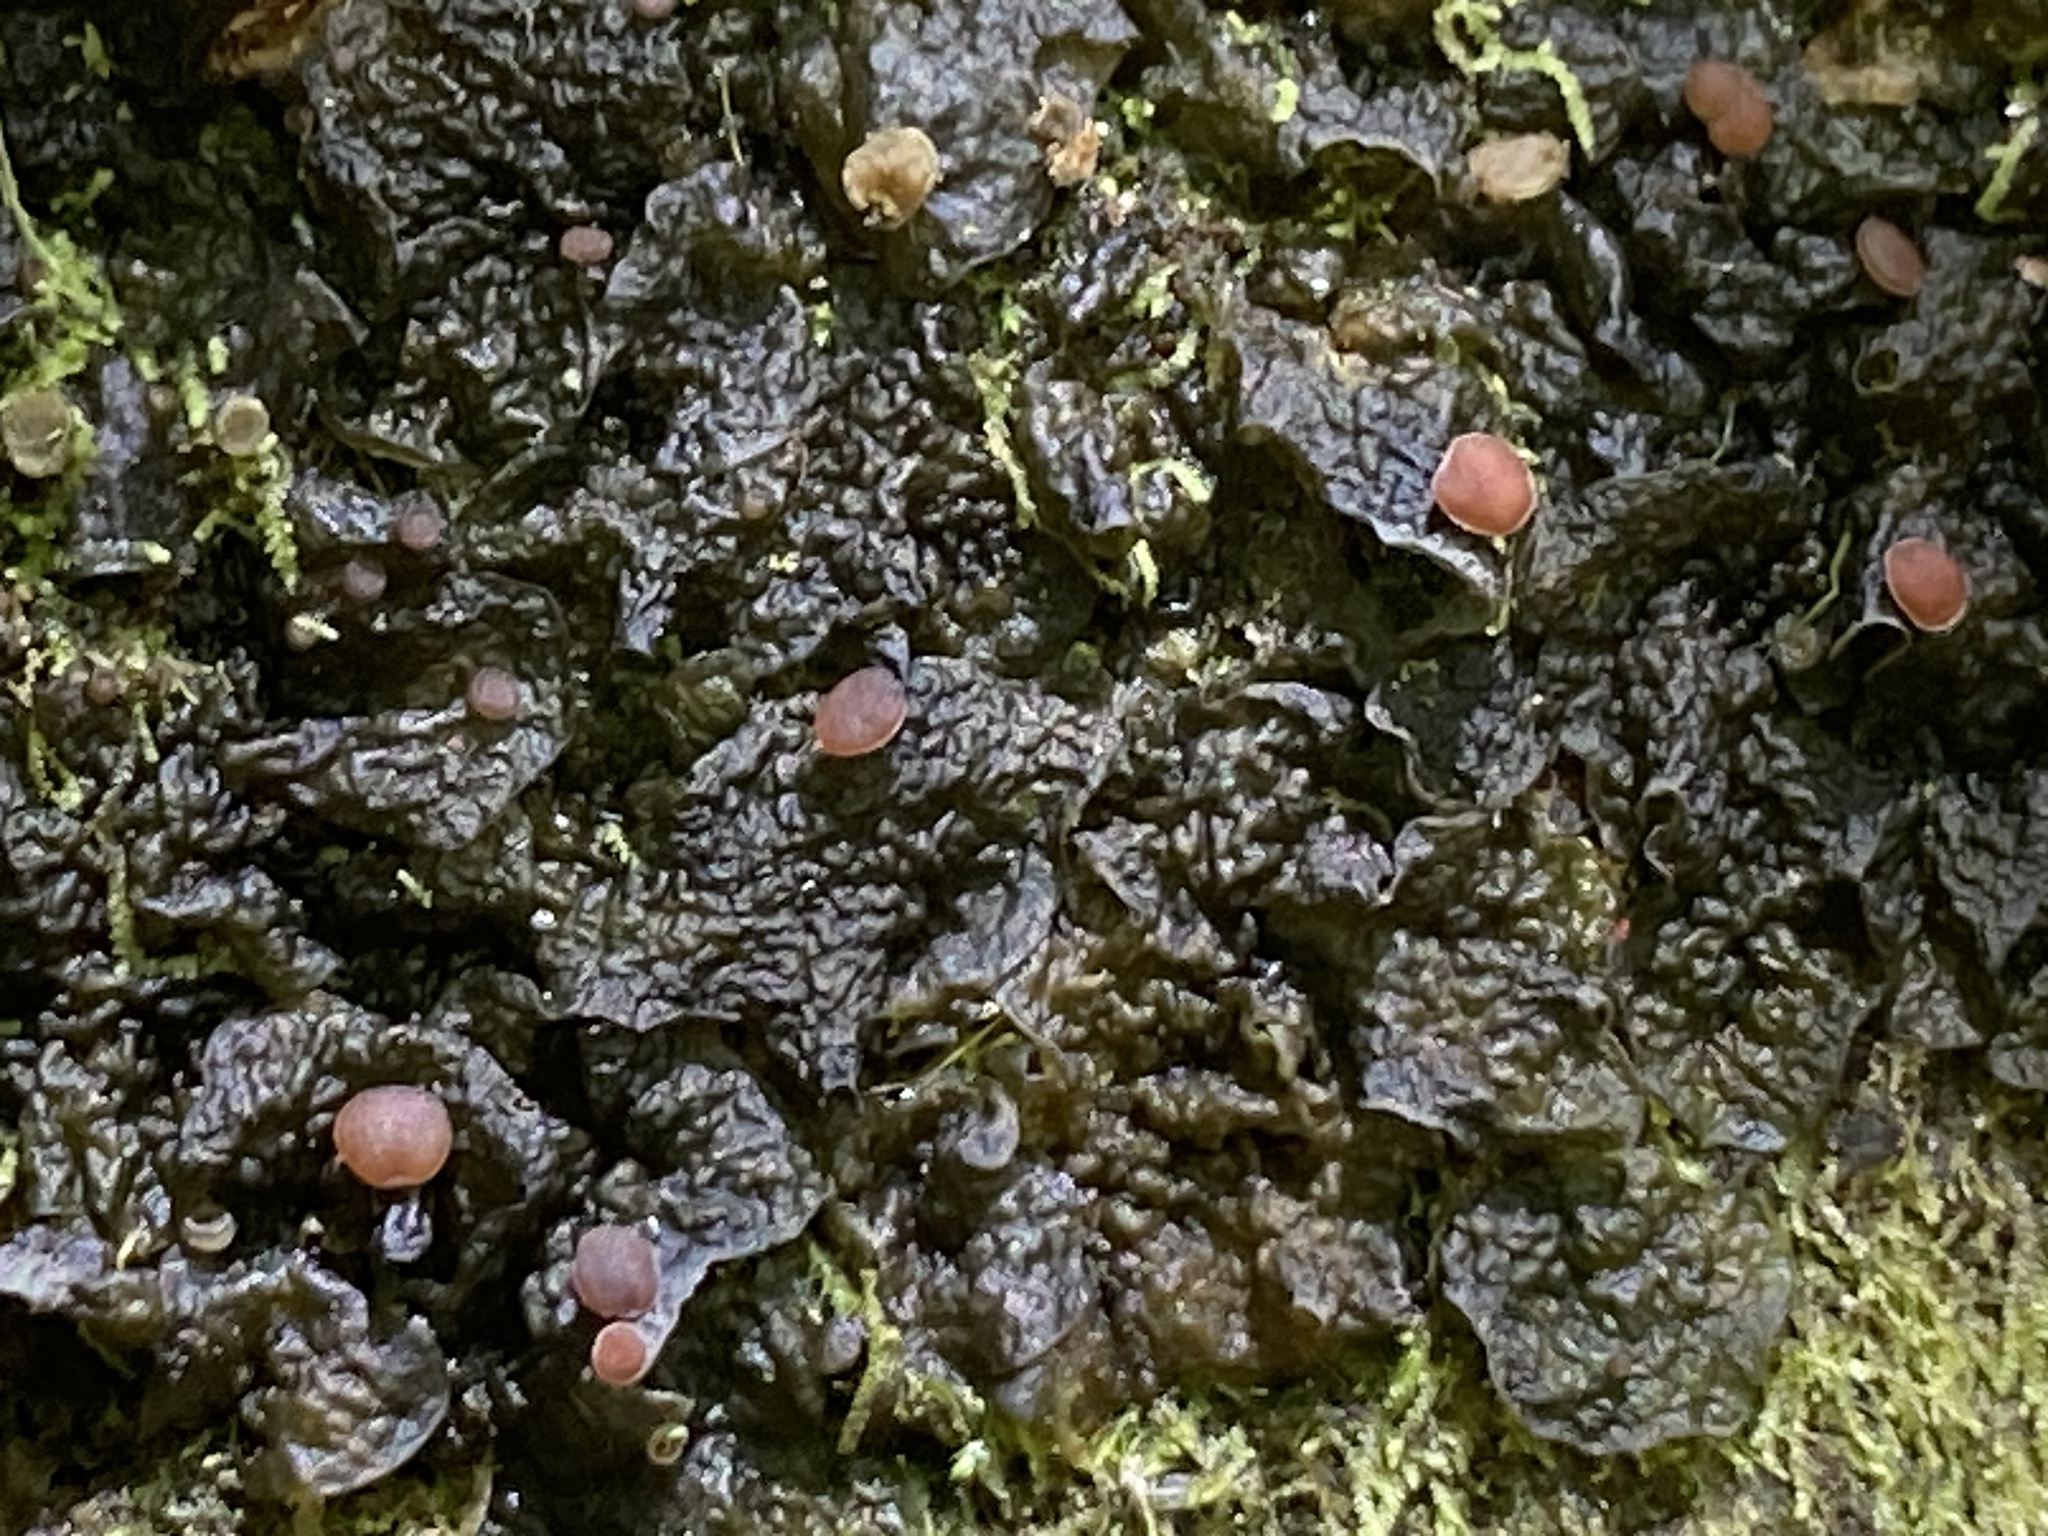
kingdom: Fungi
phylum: Ascomycota
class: Lecanoromycetes
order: Peltigerales
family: Collemataceae
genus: Leptogium
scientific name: Leptogium corticola
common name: Blistered jellyskin lichen
